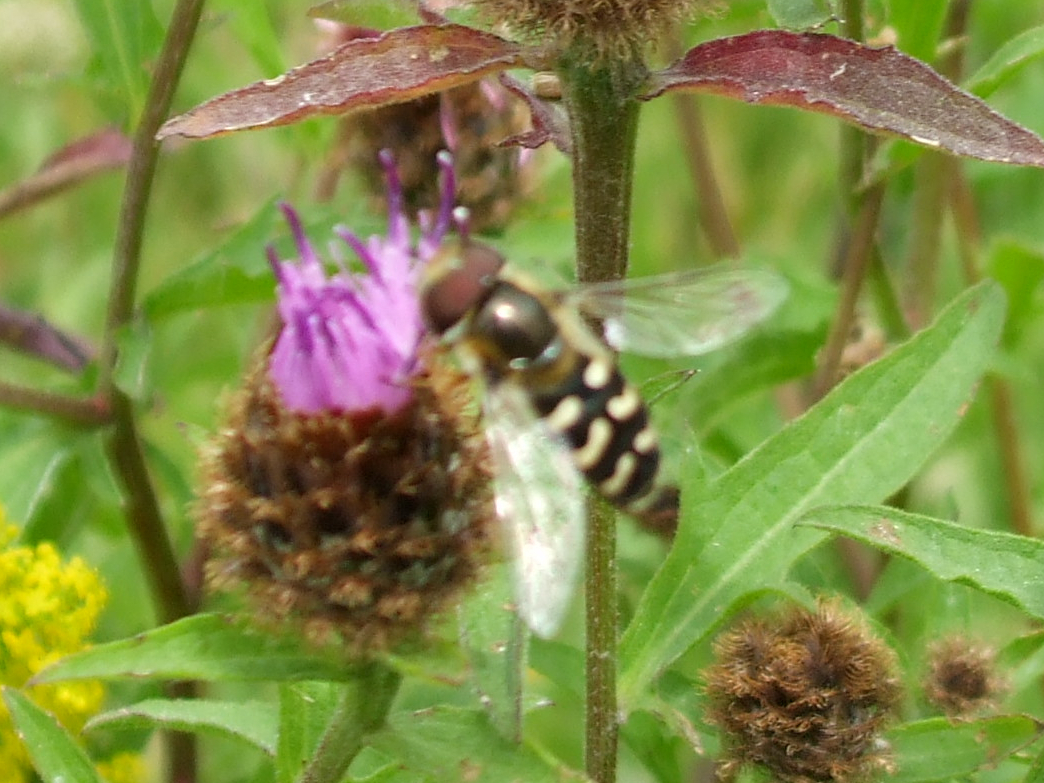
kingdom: Animalia
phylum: Arthropoda
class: Insecta
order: Diptera
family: Syrphidae
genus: Scaeva
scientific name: Scaeva pyrastri
